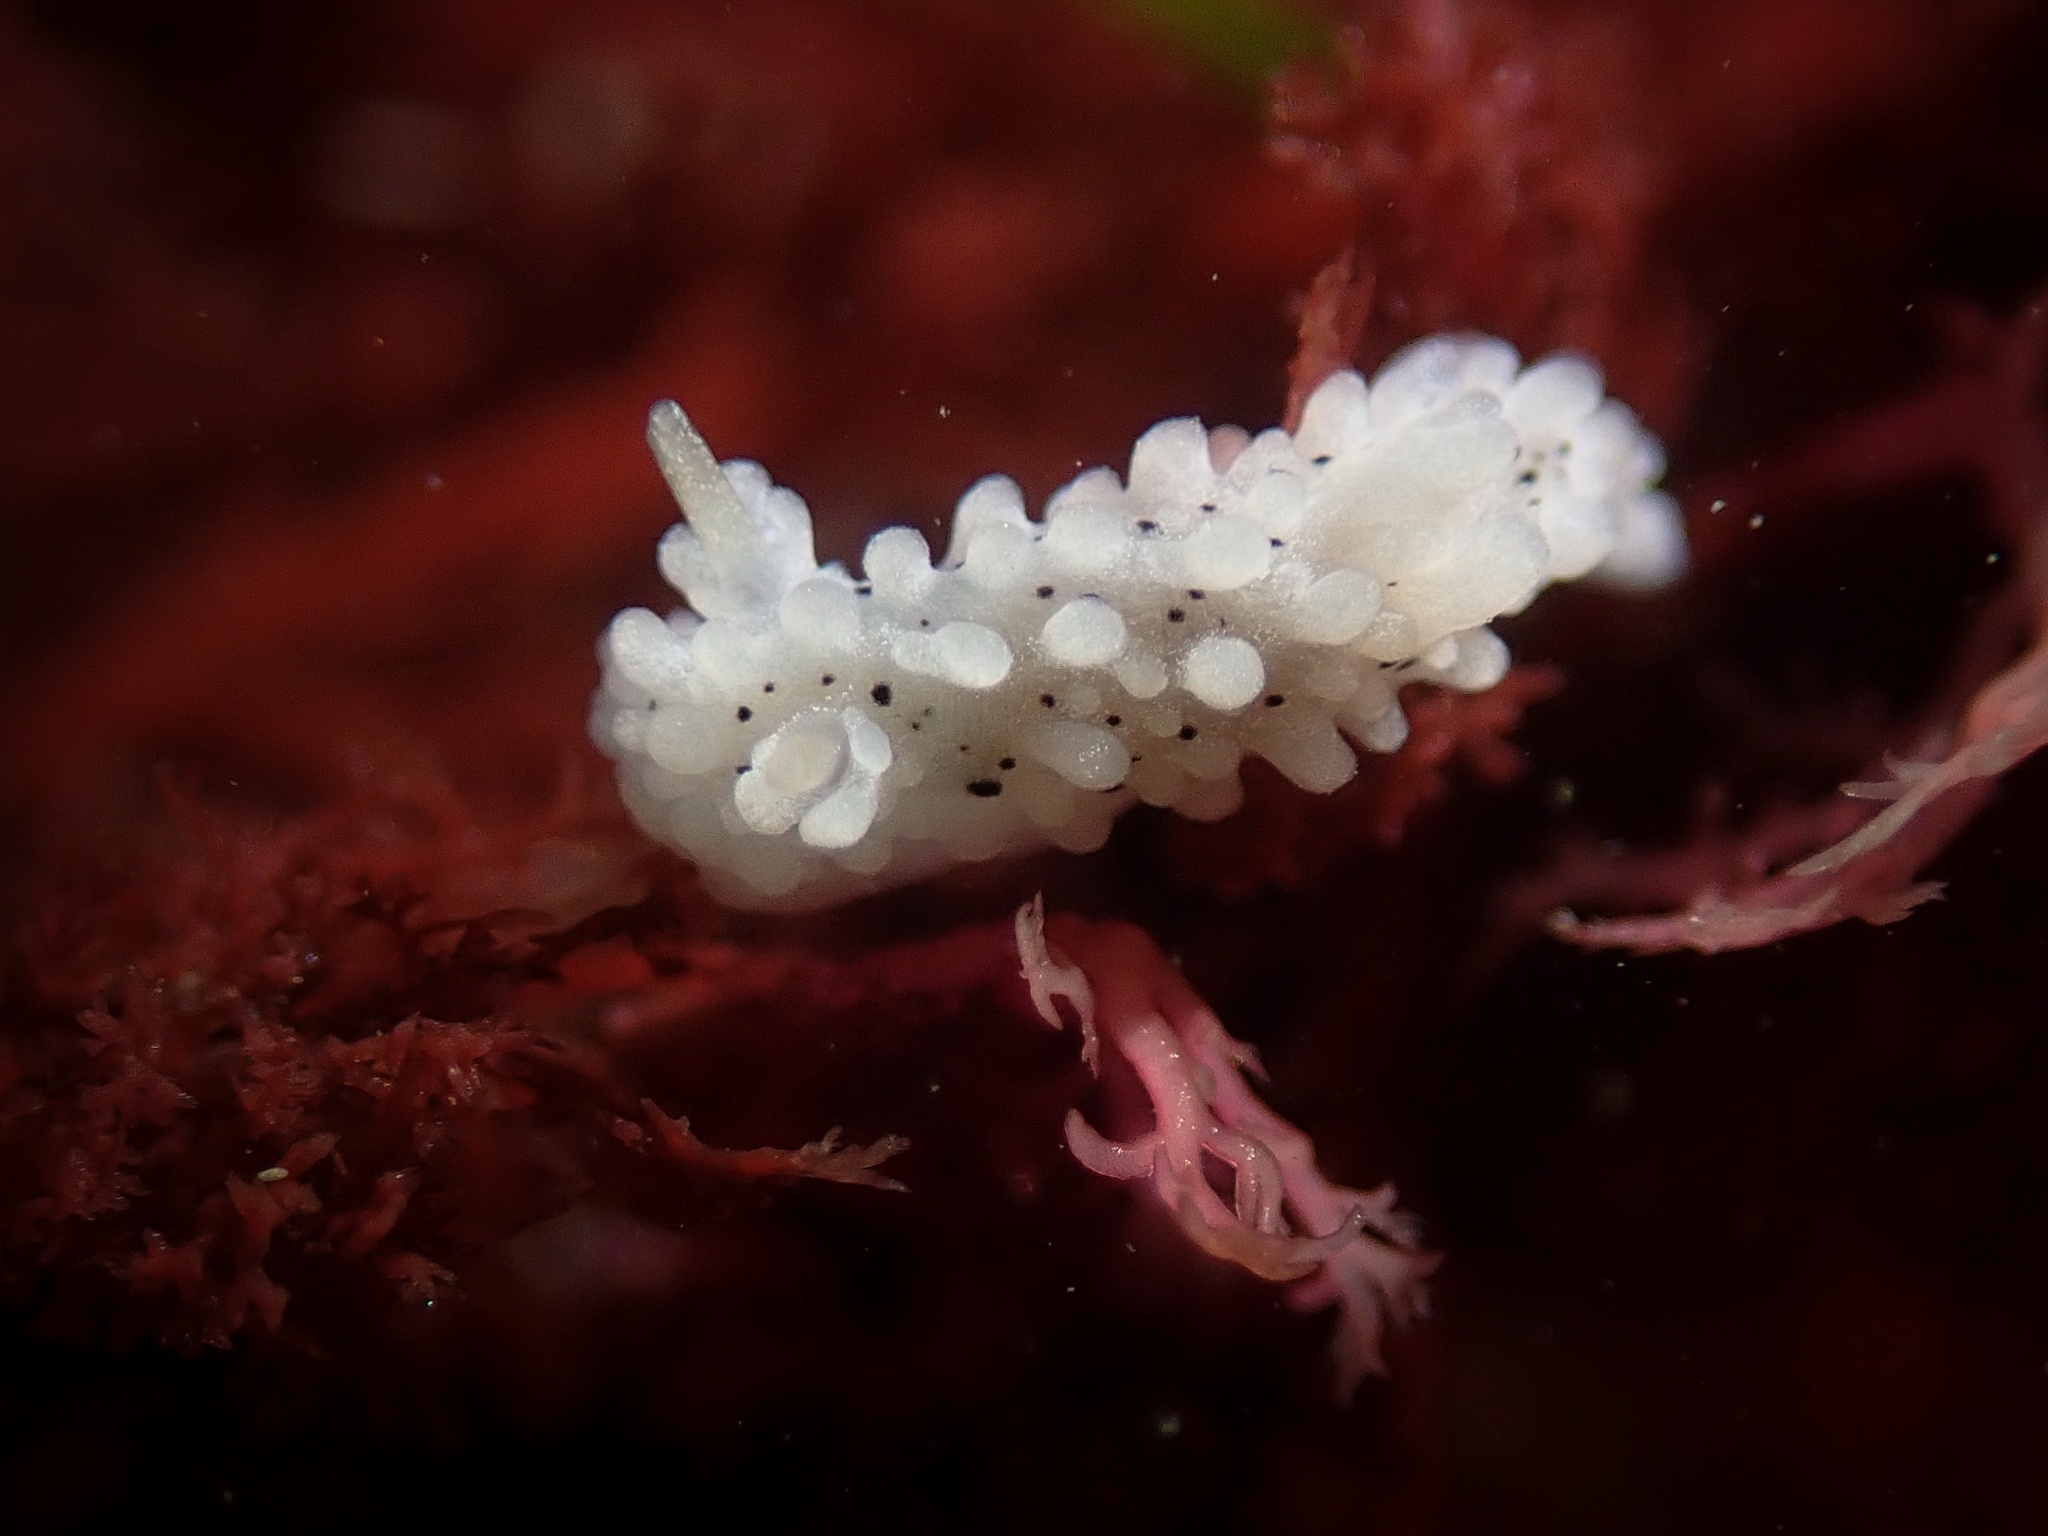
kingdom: Animalia
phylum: Mollusca
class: Gastropoda
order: Nudibranchia
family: Aegiridae
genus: Aegires
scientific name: Aegires albopunctatus
